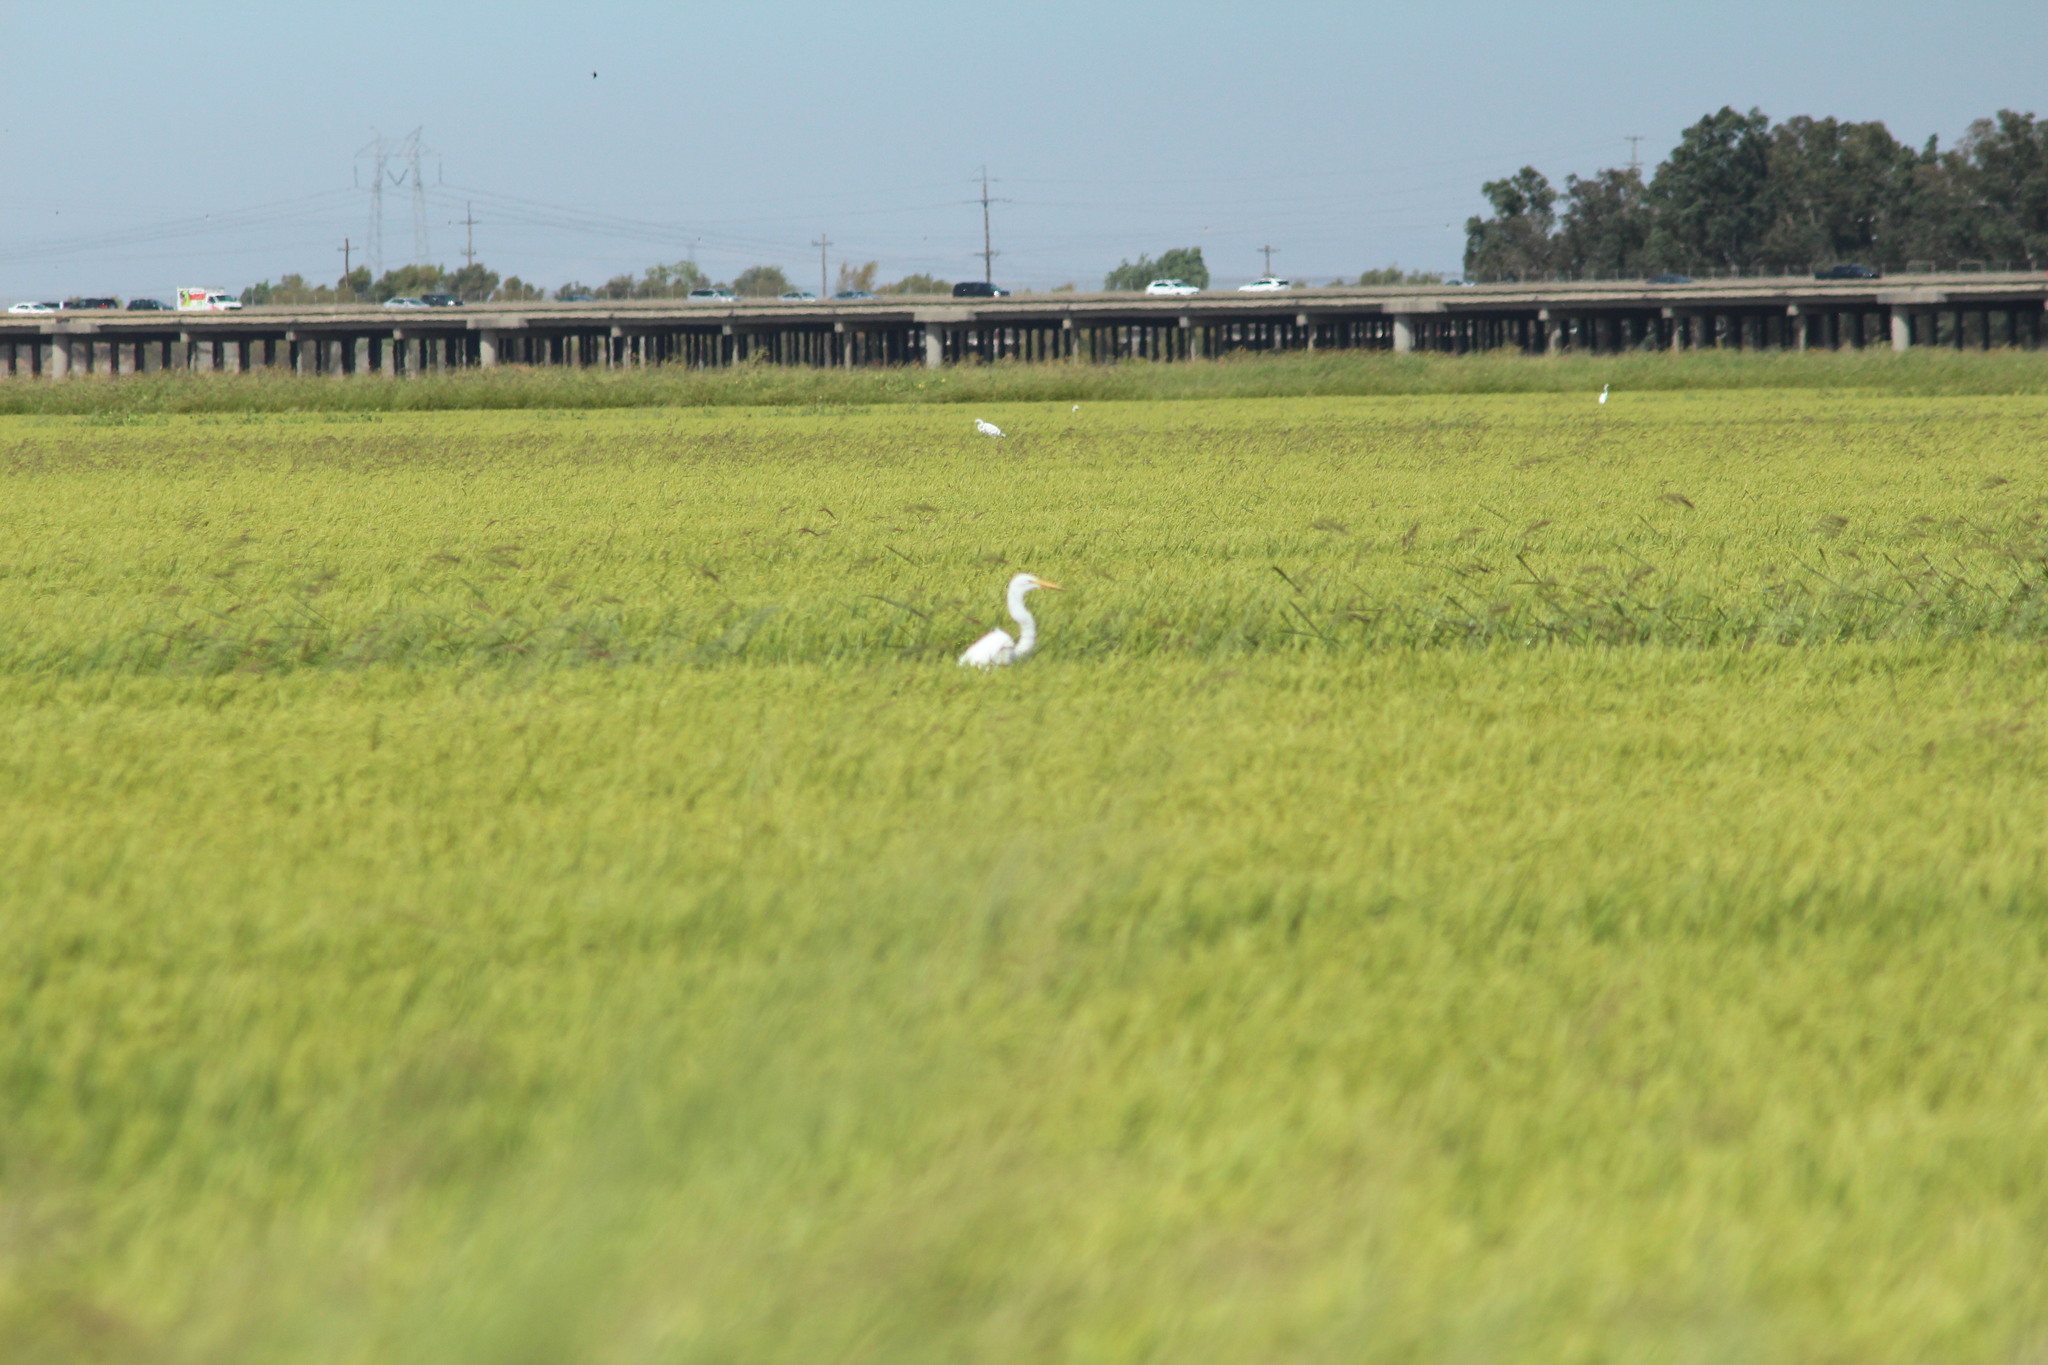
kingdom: Animalia
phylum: Chordata
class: Aves
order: Pelecaniformes
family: Ardeidae
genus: Ardea
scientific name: Ardea alba
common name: Great egret
